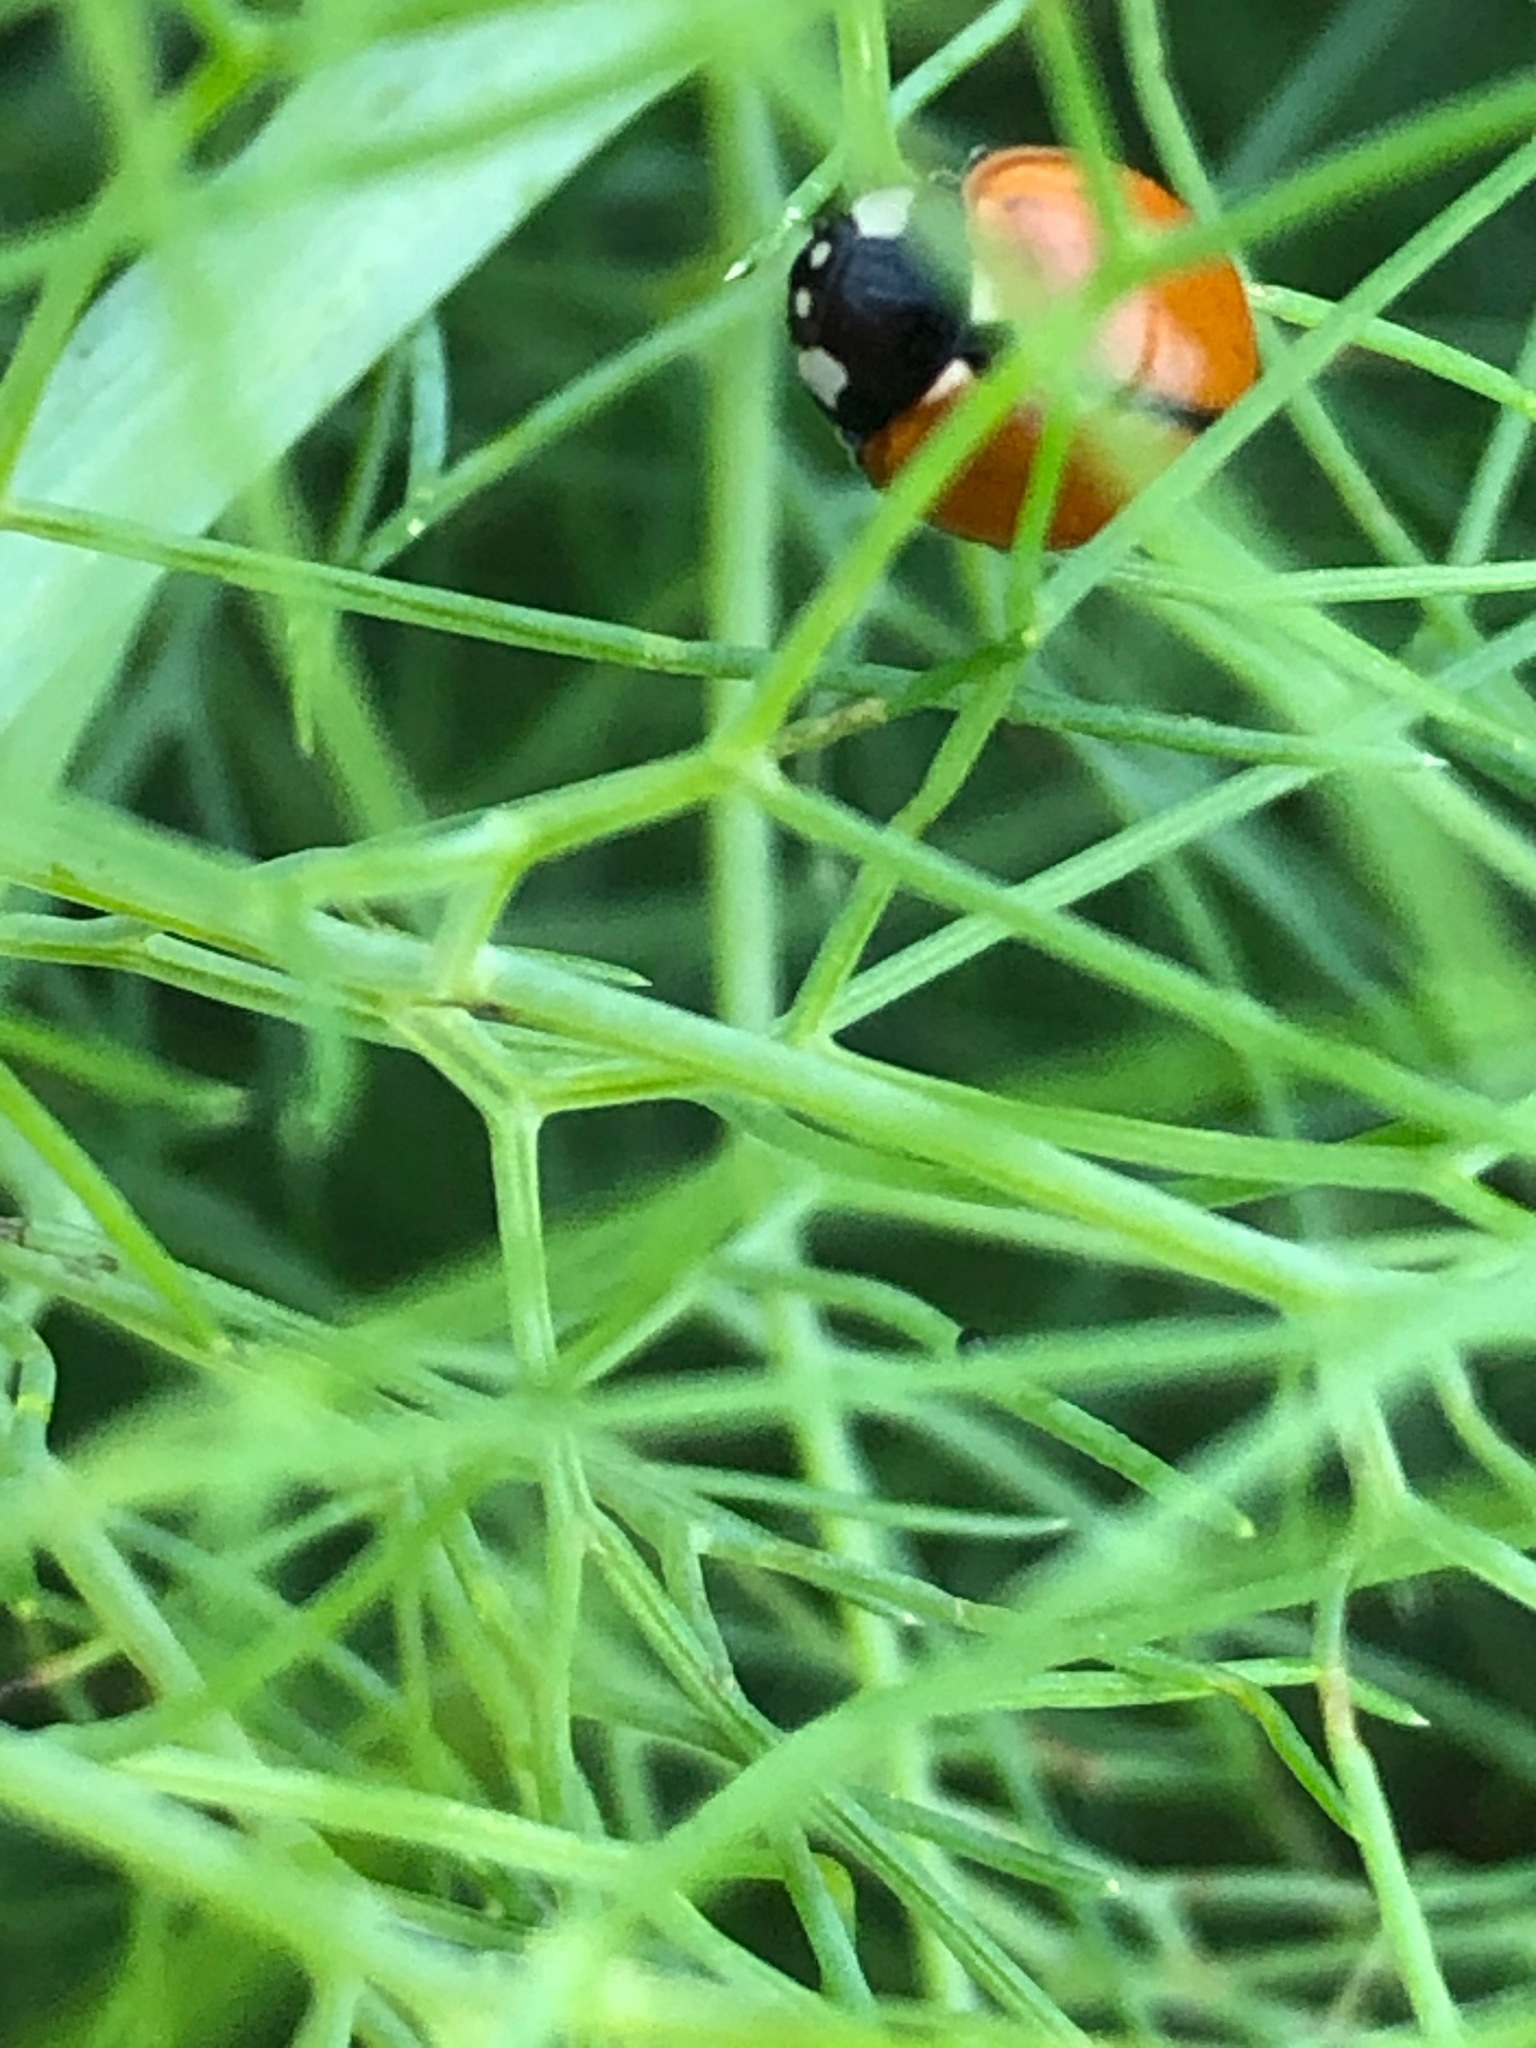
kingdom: Animalia
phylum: Arthropoda
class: Insecta
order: Coleoptera
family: Coccinellidae
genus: Coccinella
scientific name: Coccinella californica
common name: Lady beetle
